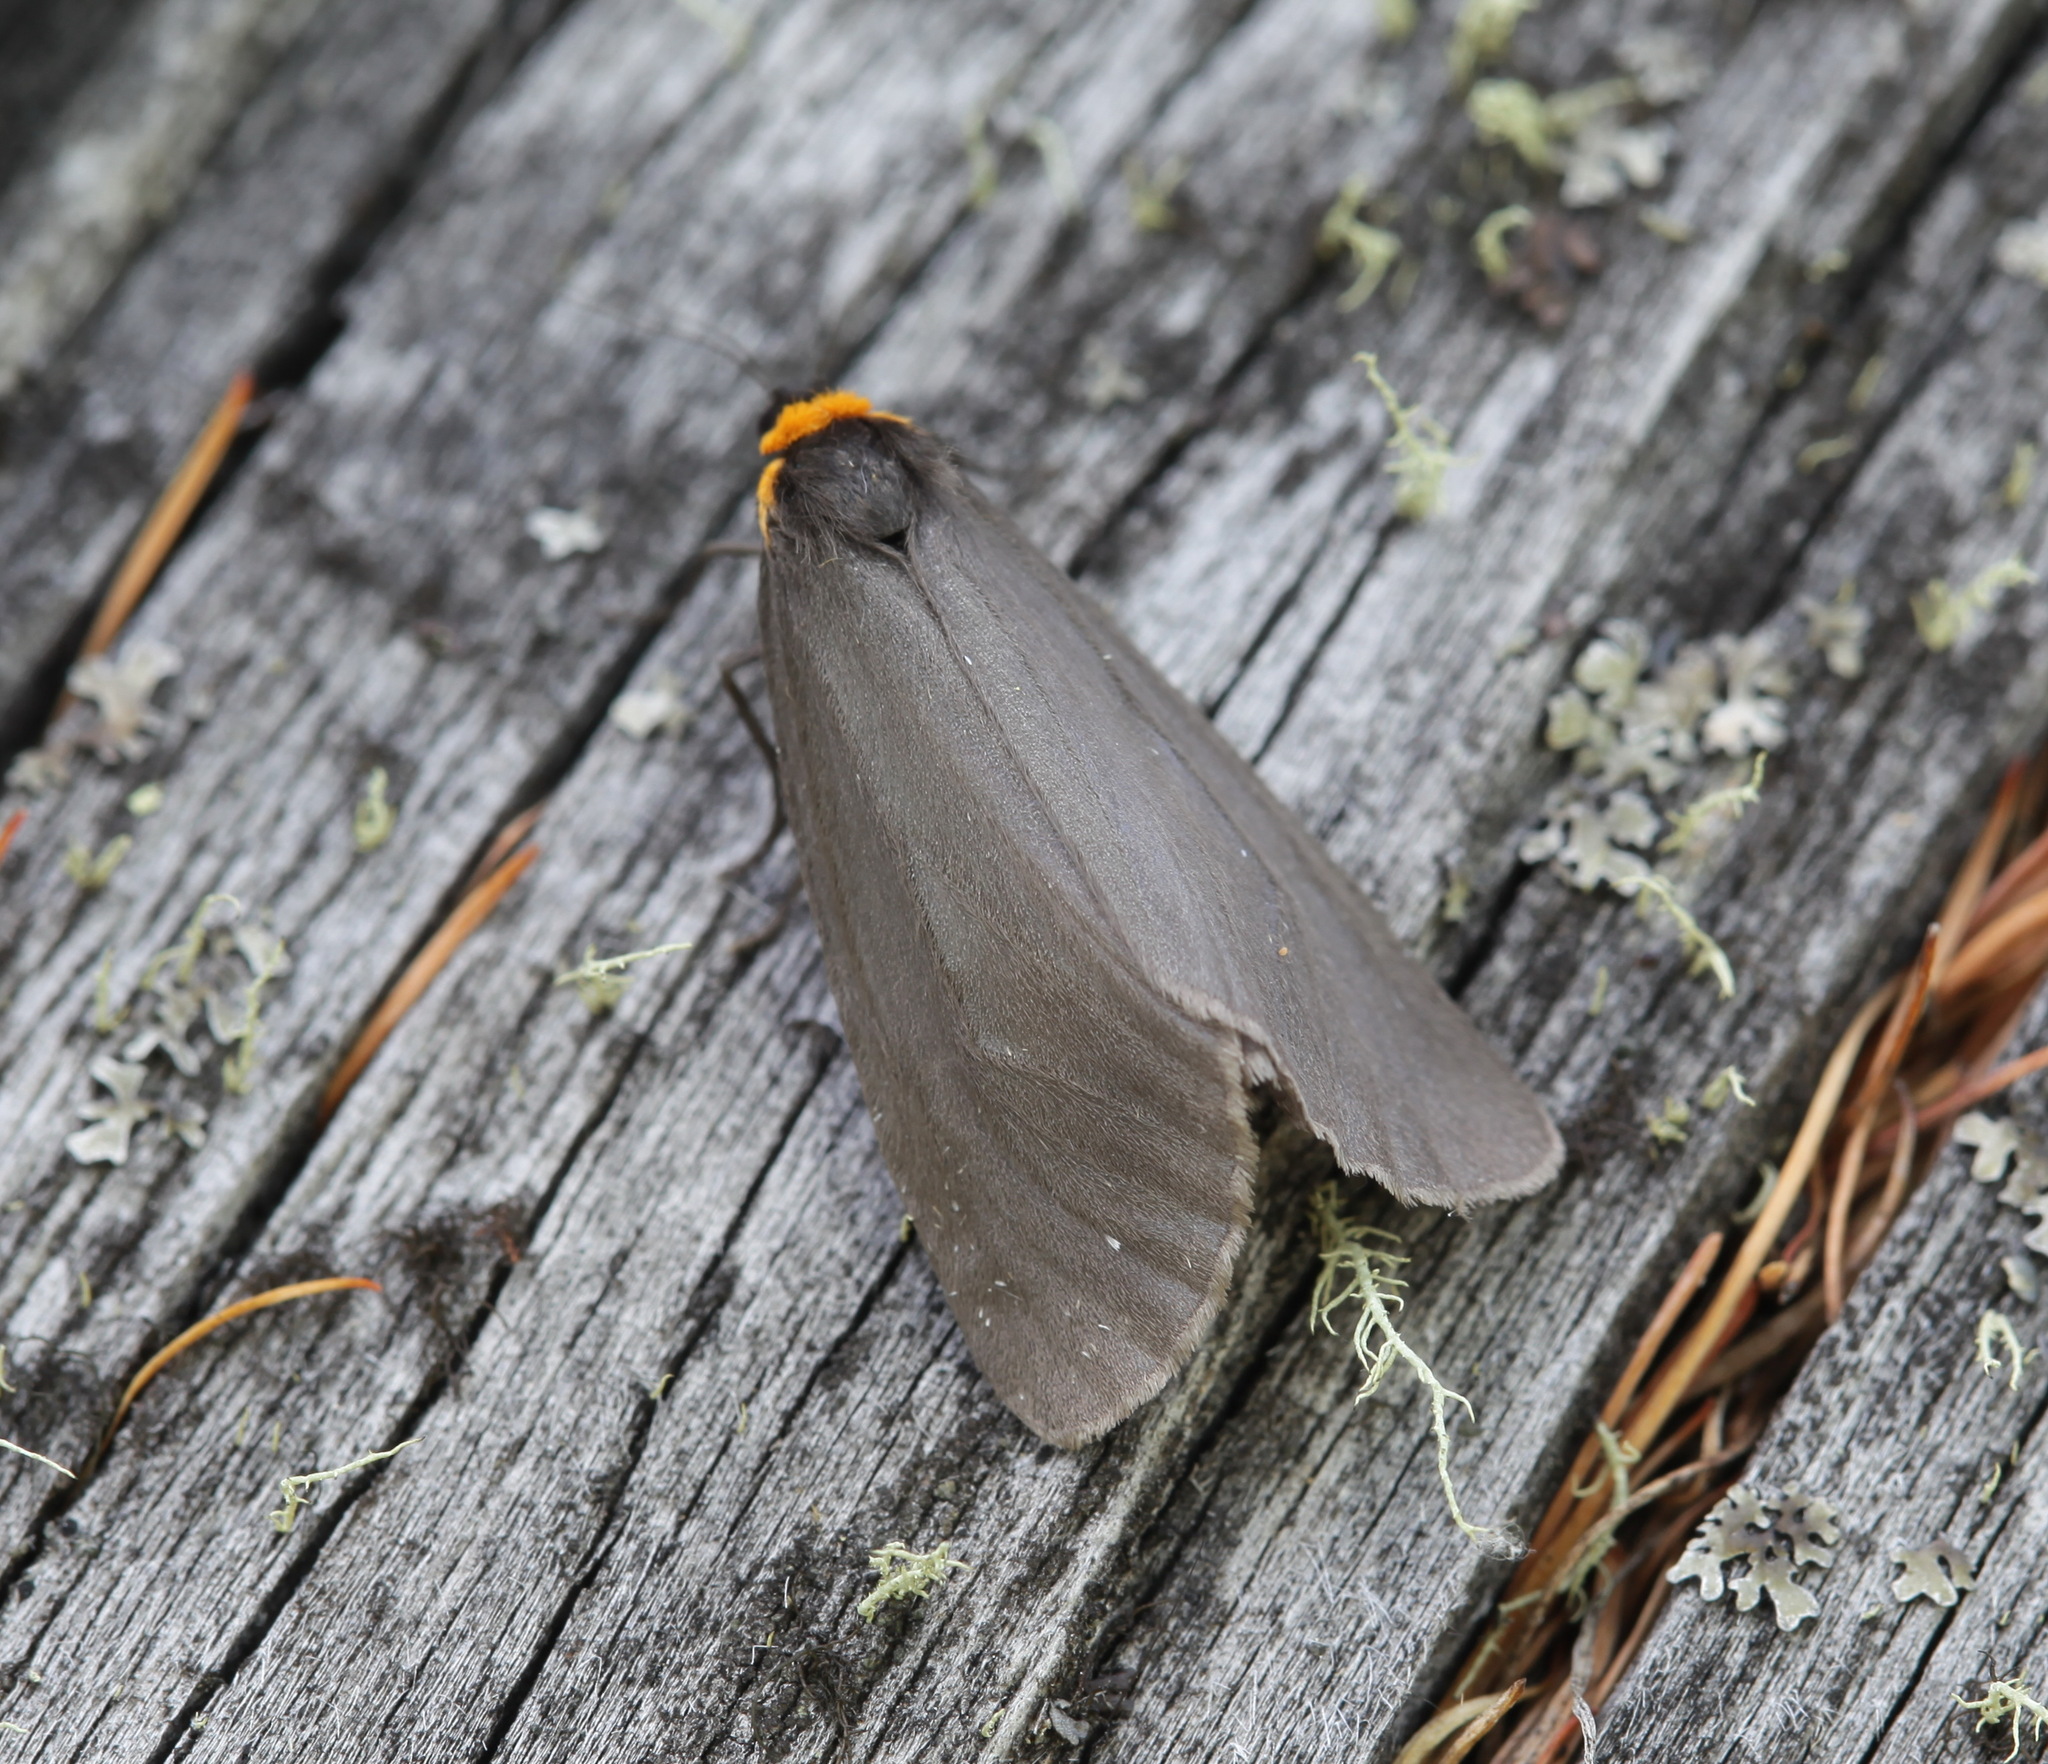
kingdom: Animalia
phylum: Arthropoda
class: Insecta
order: Lepidoptera
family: Erebidae
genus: Dodia
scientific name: Dodia
